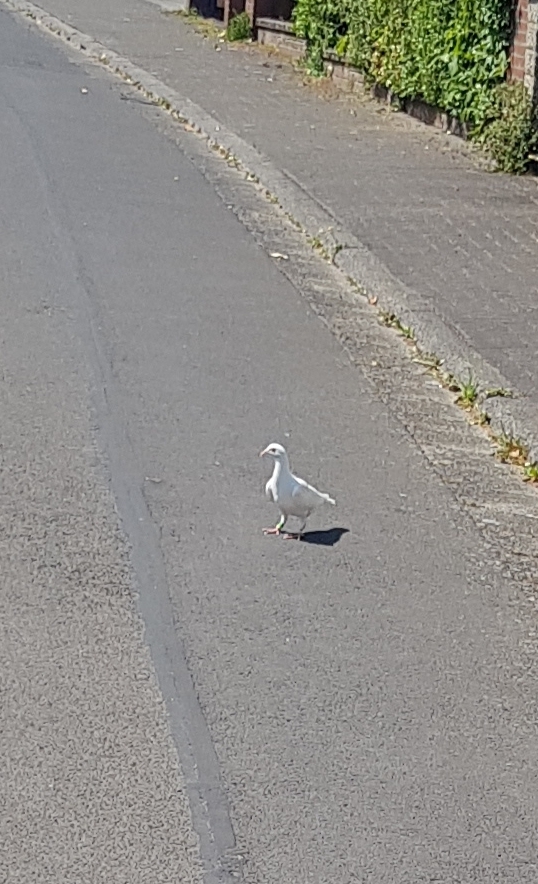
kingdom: Animalia
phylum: Chordata
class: Aves
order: Columbiformes
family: Columbidae
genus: Columba
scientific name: Columba livia
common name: Rock pigeon
